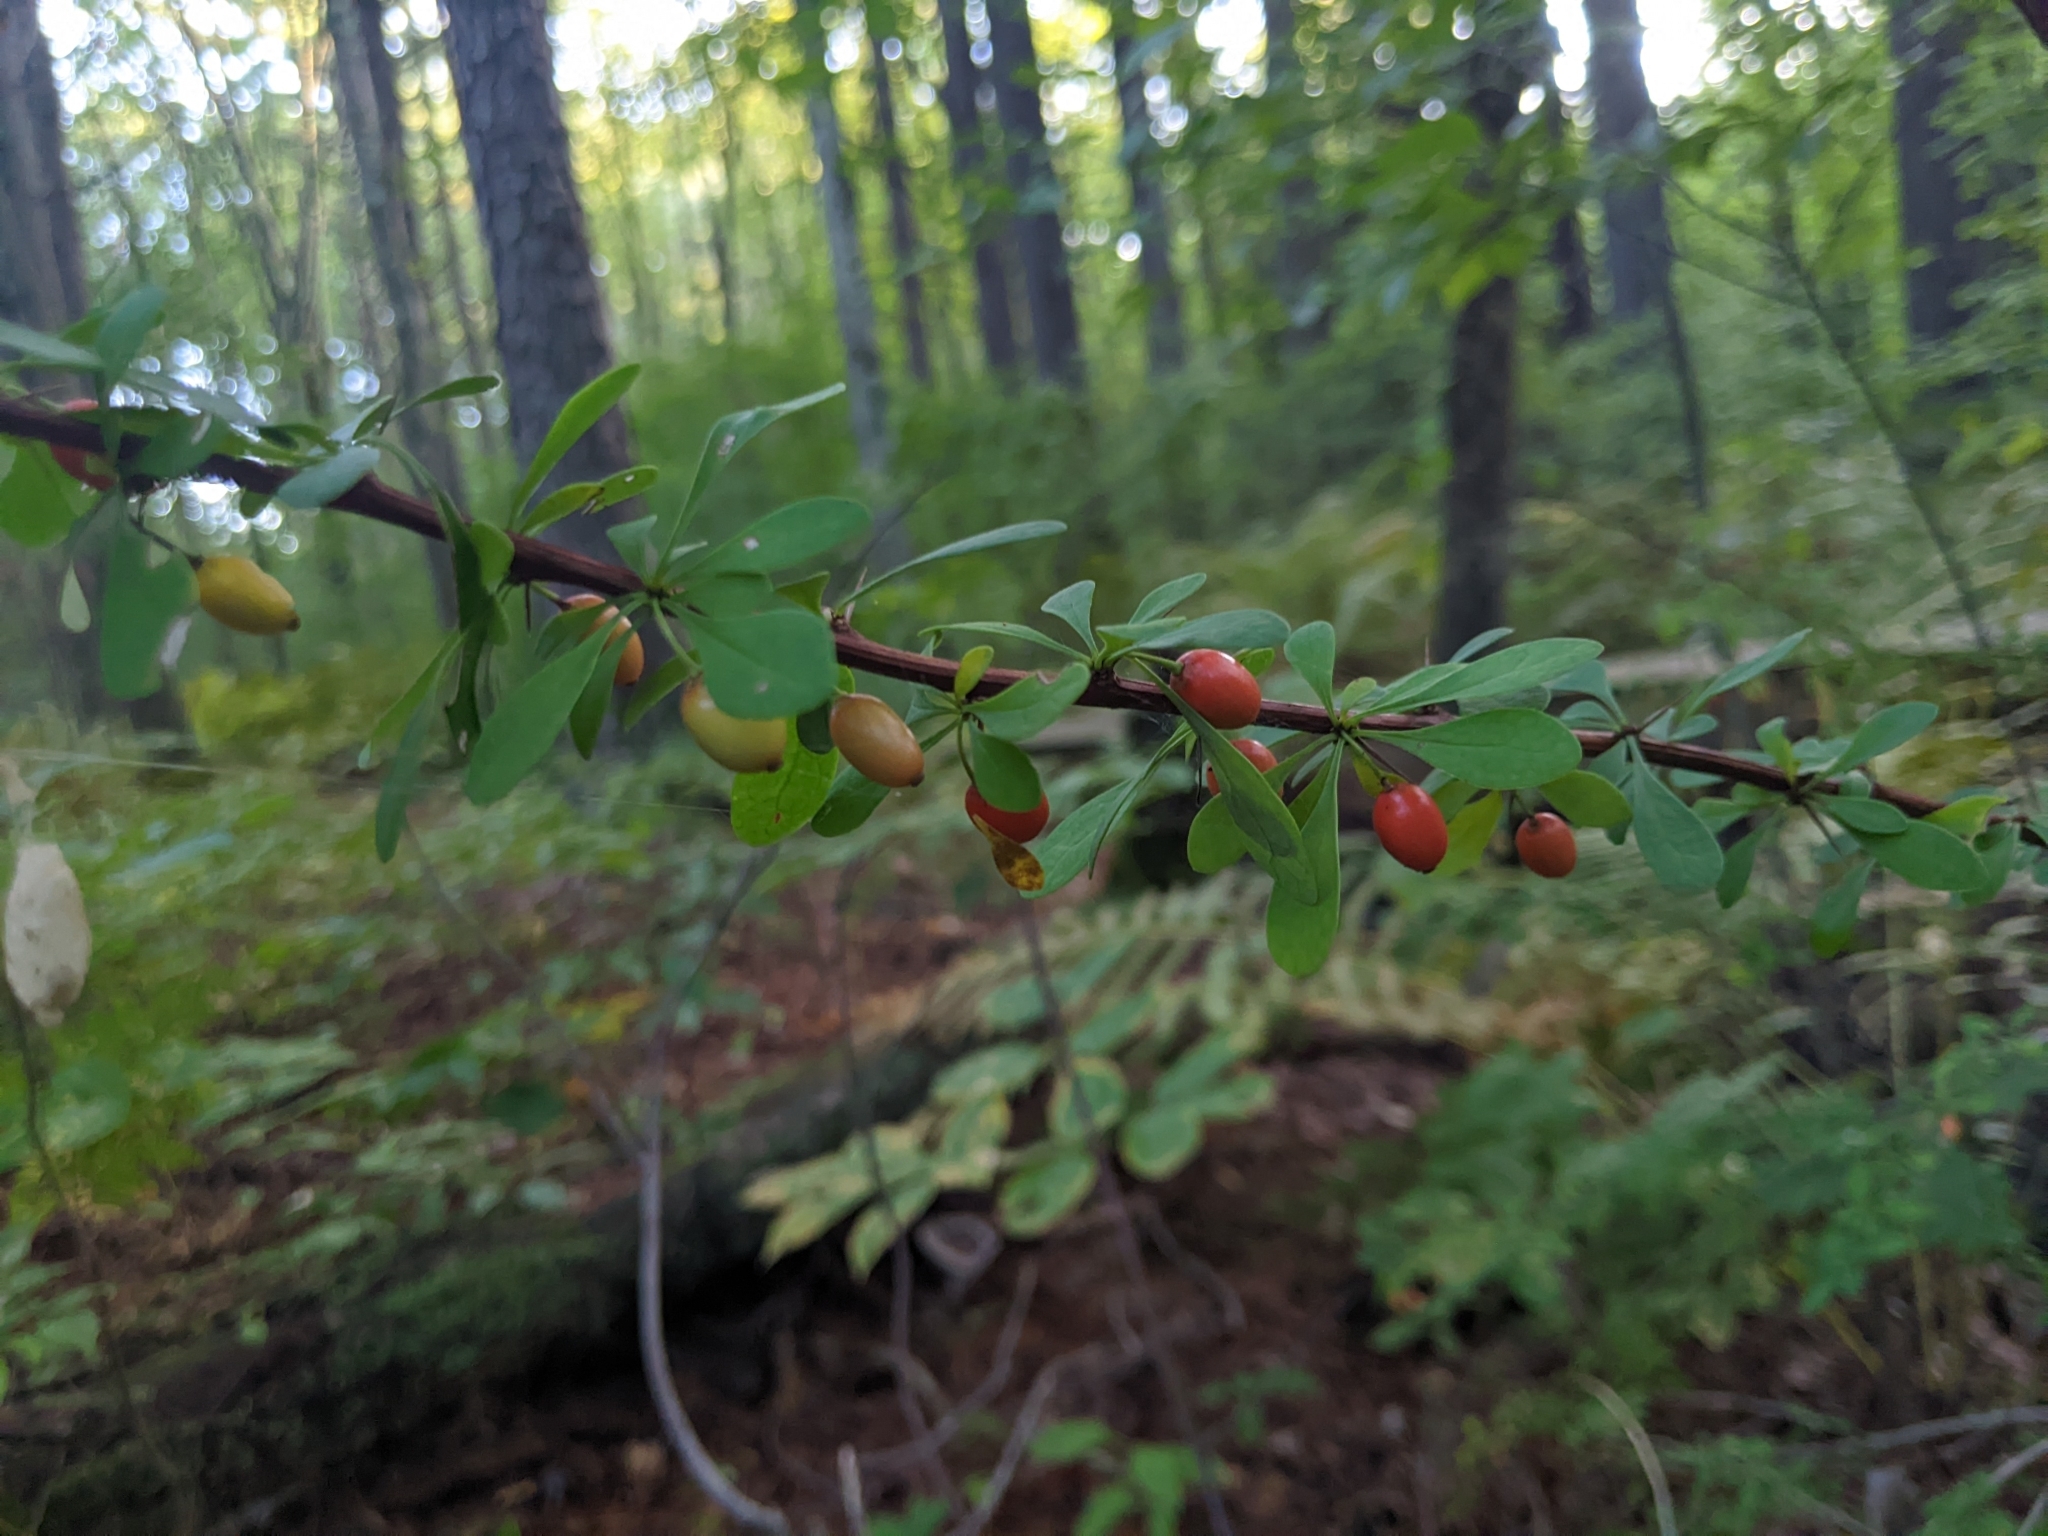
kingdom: Plantae
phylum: Tracheophyta
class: Magnoliopsida
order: Ranunculales
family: Berberidaceae
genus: Berberis
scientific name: Berberis thunbergii
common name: Japanese barberry
